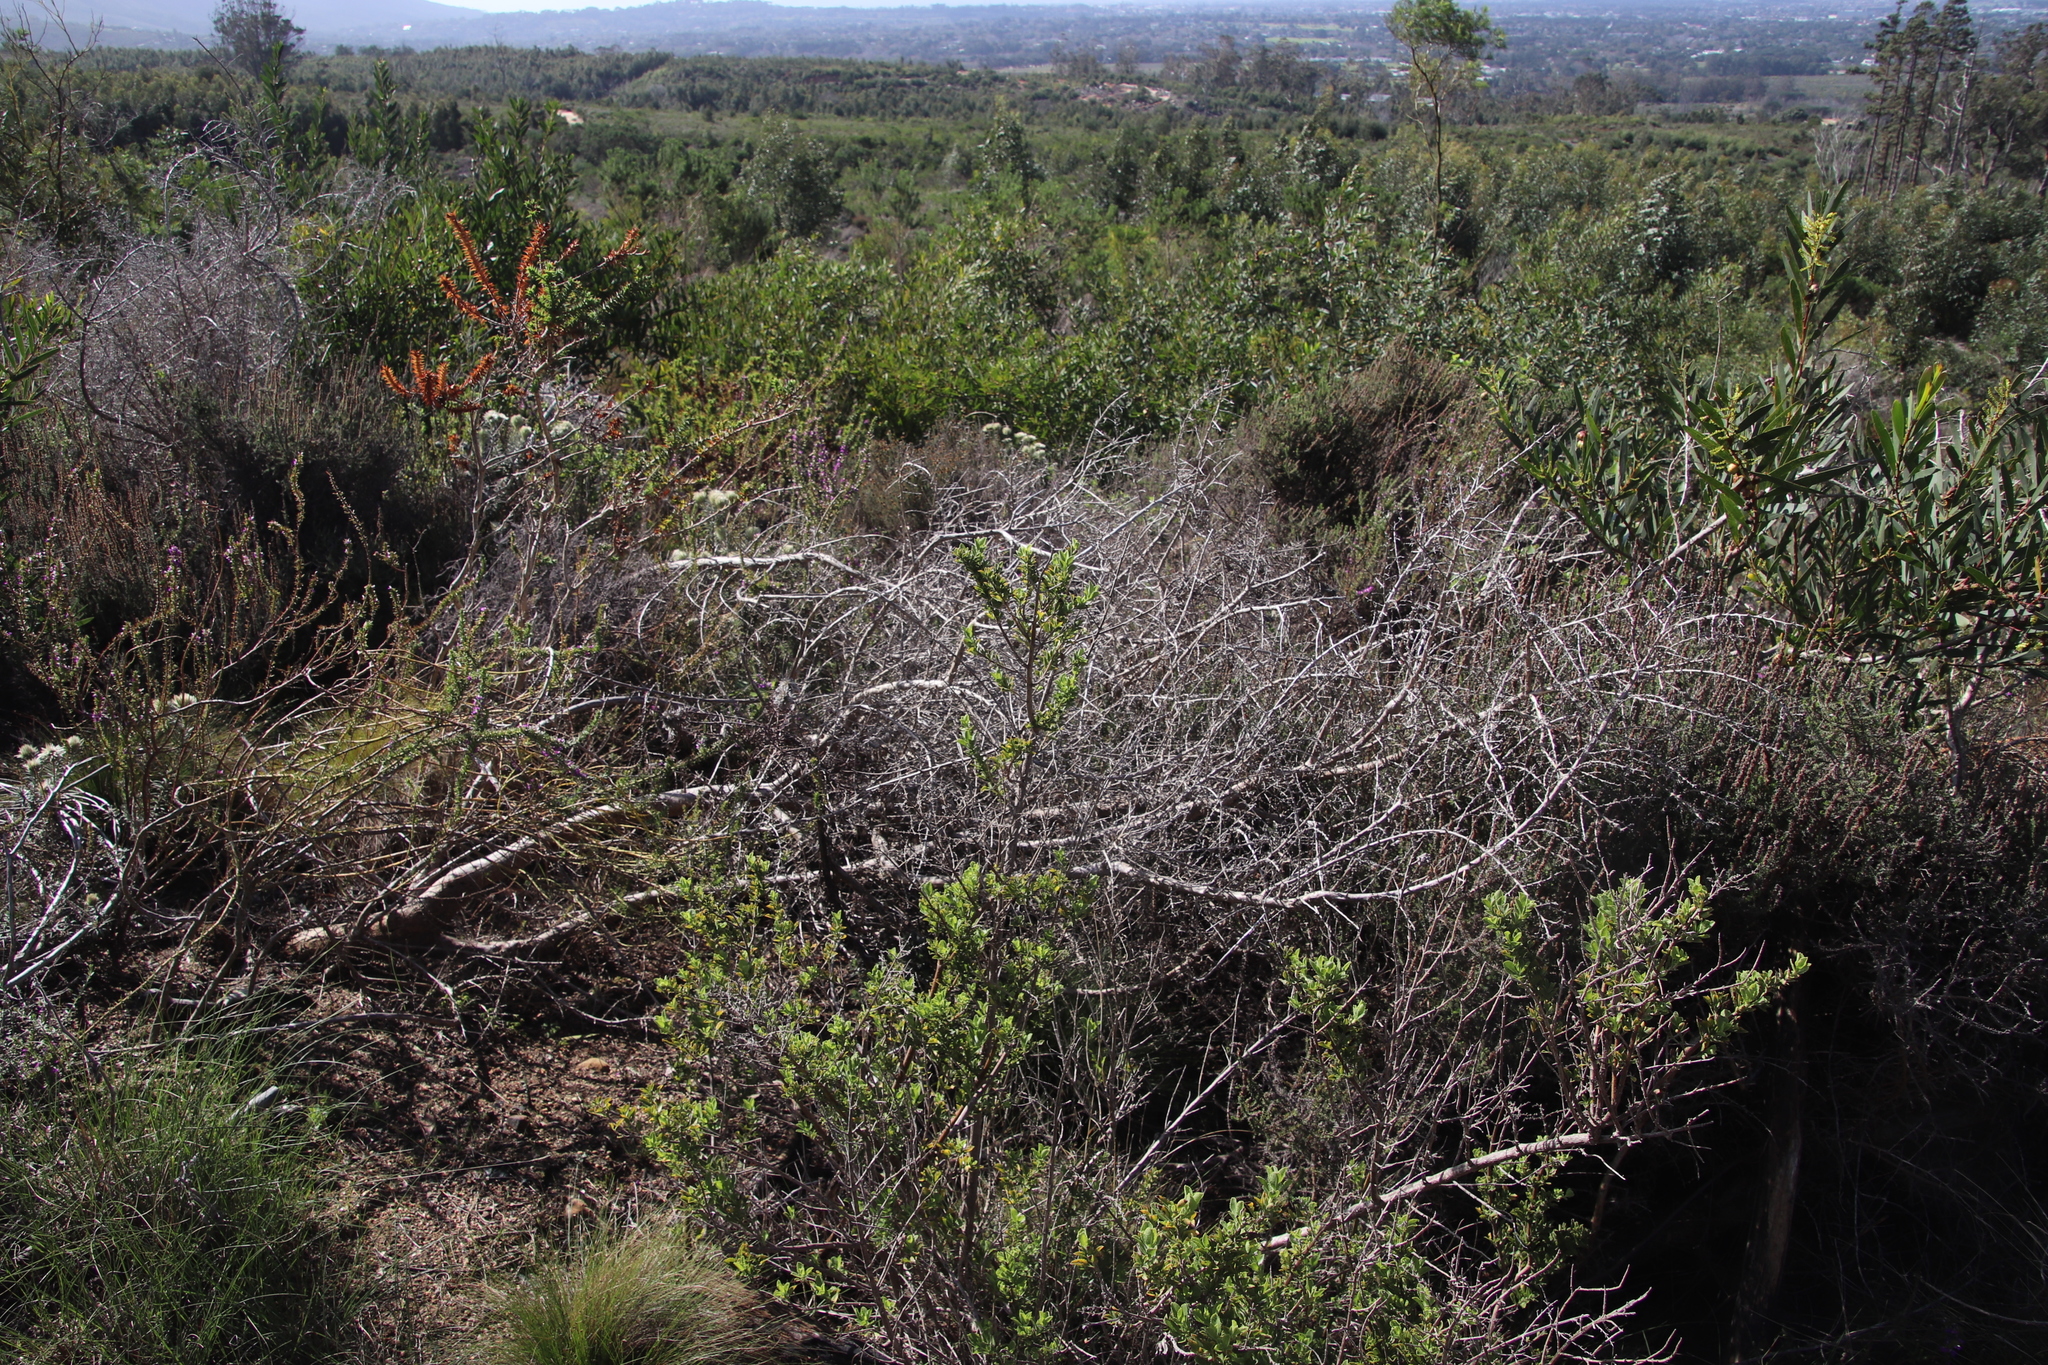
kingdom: Plantae
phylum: Tracheophyta
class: Magnoliopsida
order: Lamiales
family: Lamiaceae
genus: Salvia
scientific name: Salvia chamelaeagnea
